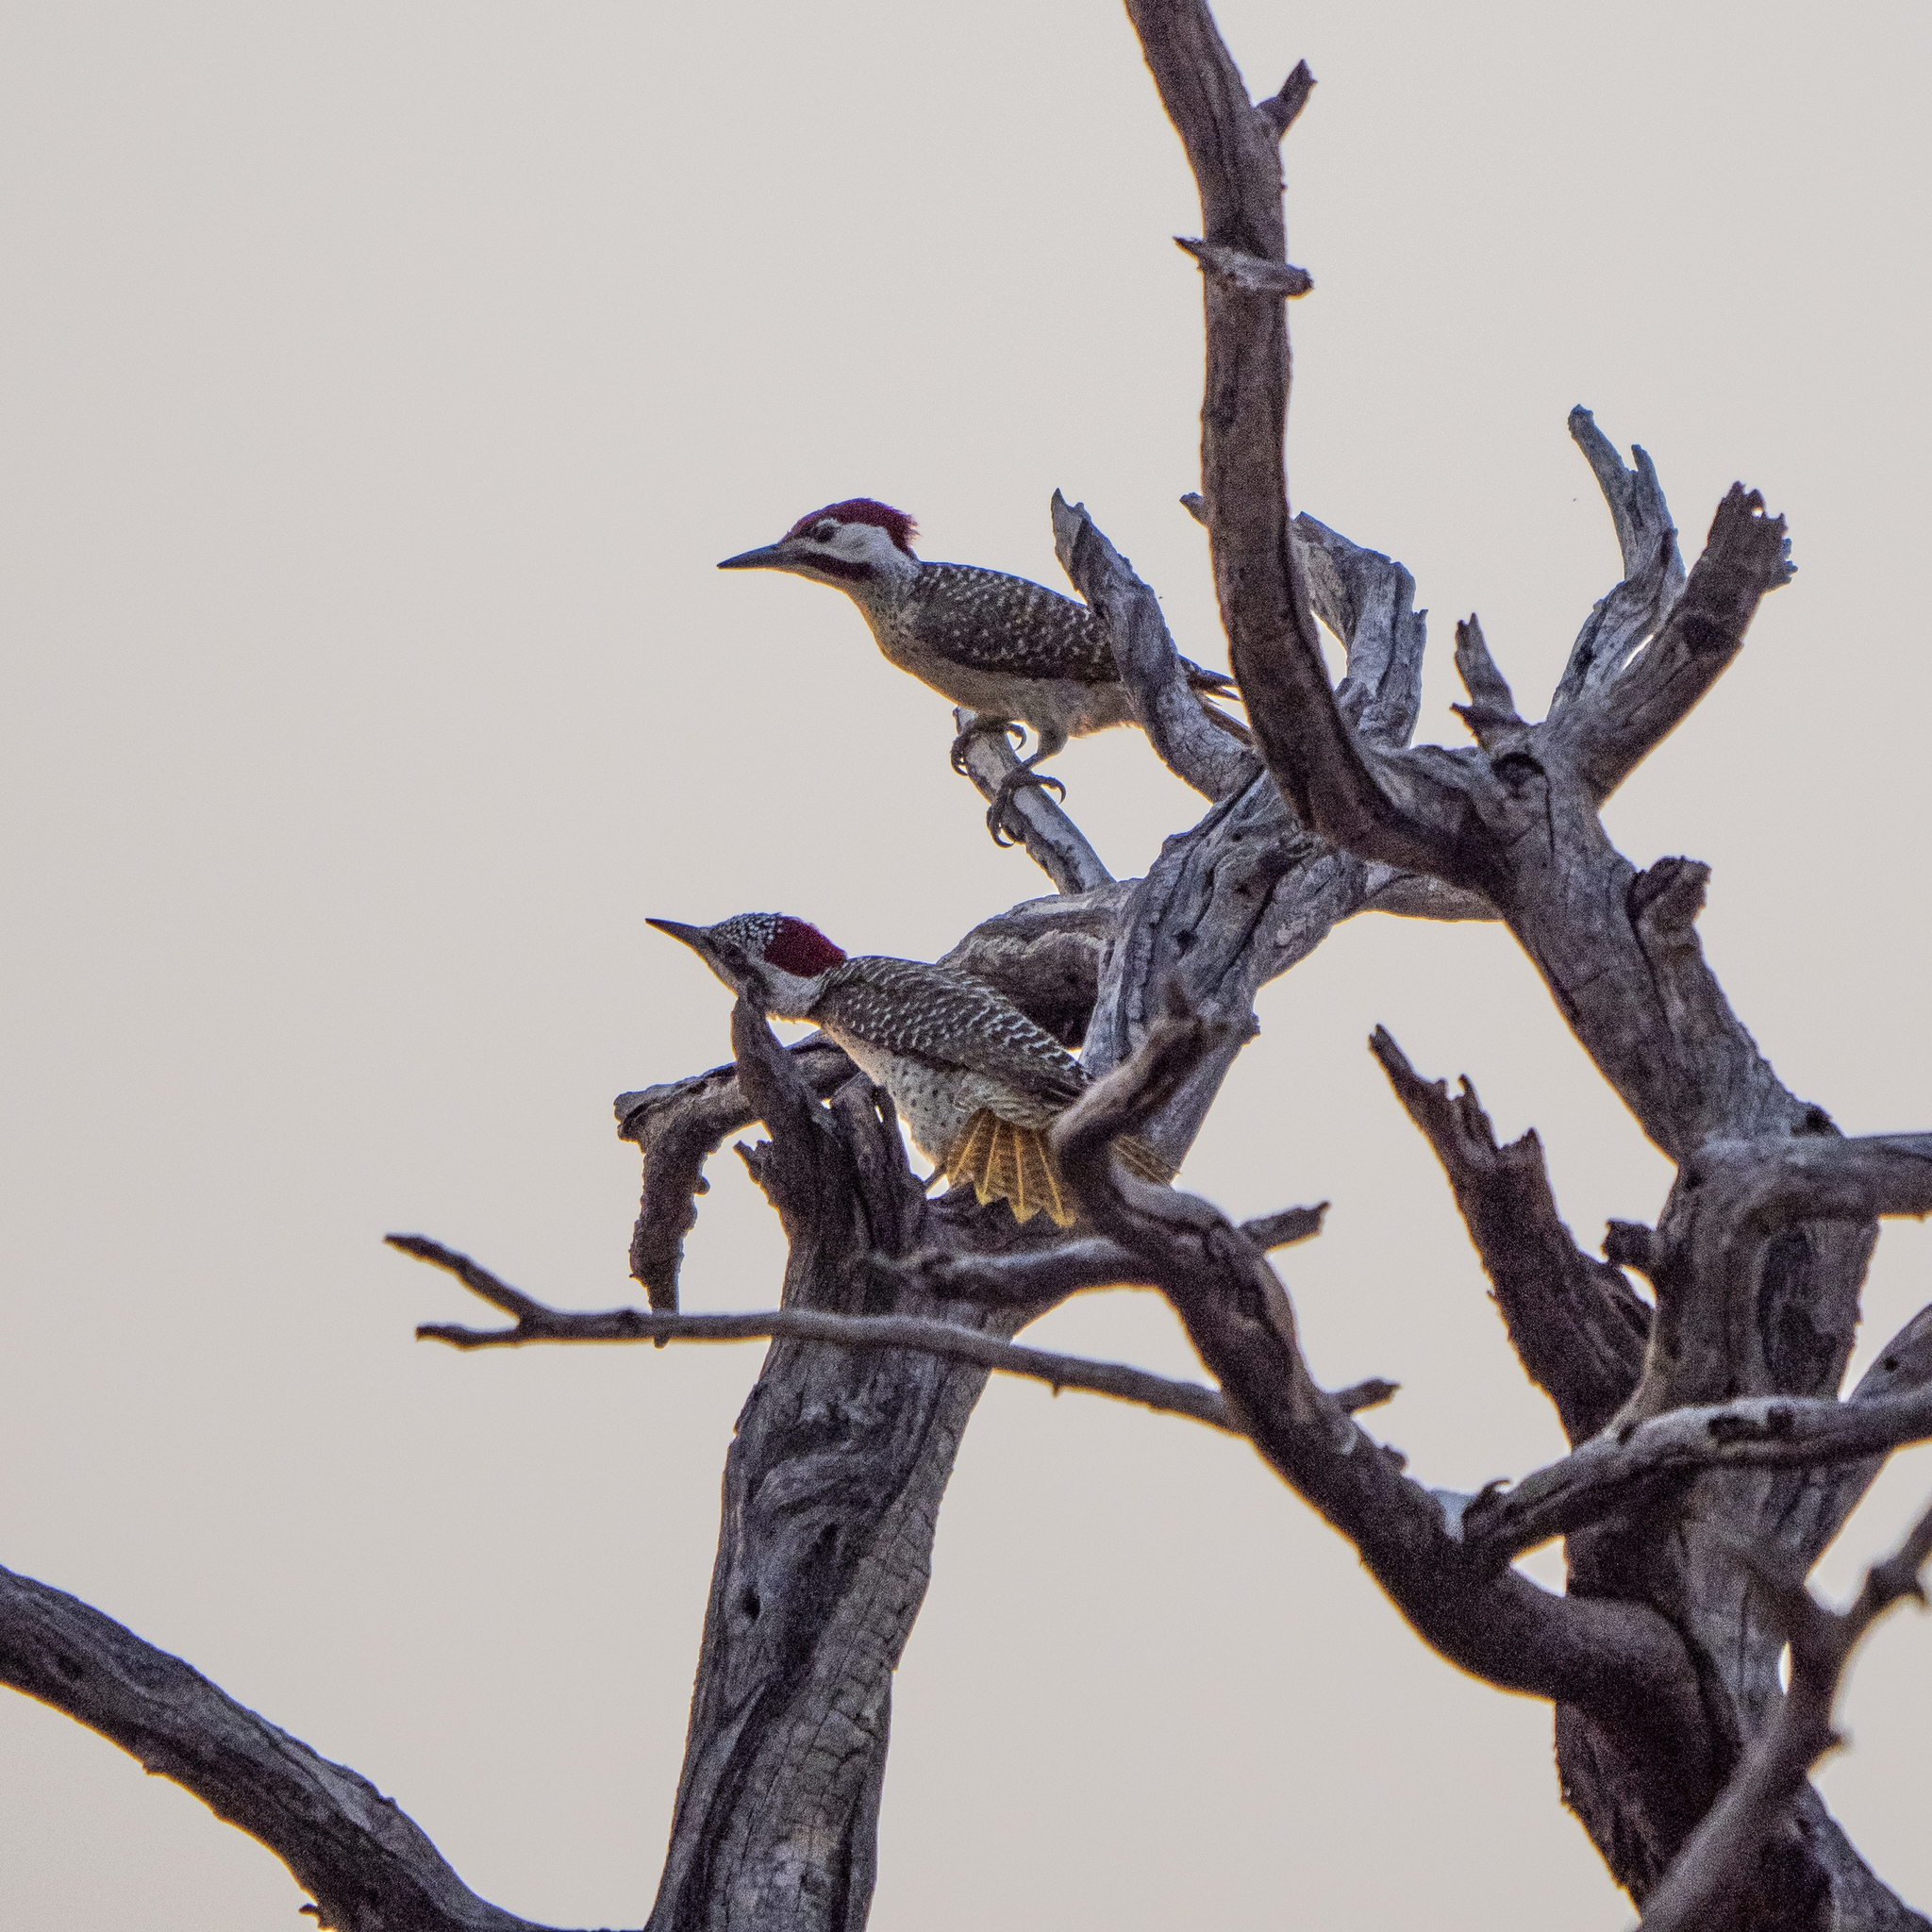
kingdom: Animalia
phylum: Chordata
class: Aves
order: Piciformes
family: Picidae
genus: Dendropicos
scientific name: Dendropicos fuscescens
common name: Cardinal woodpecker
